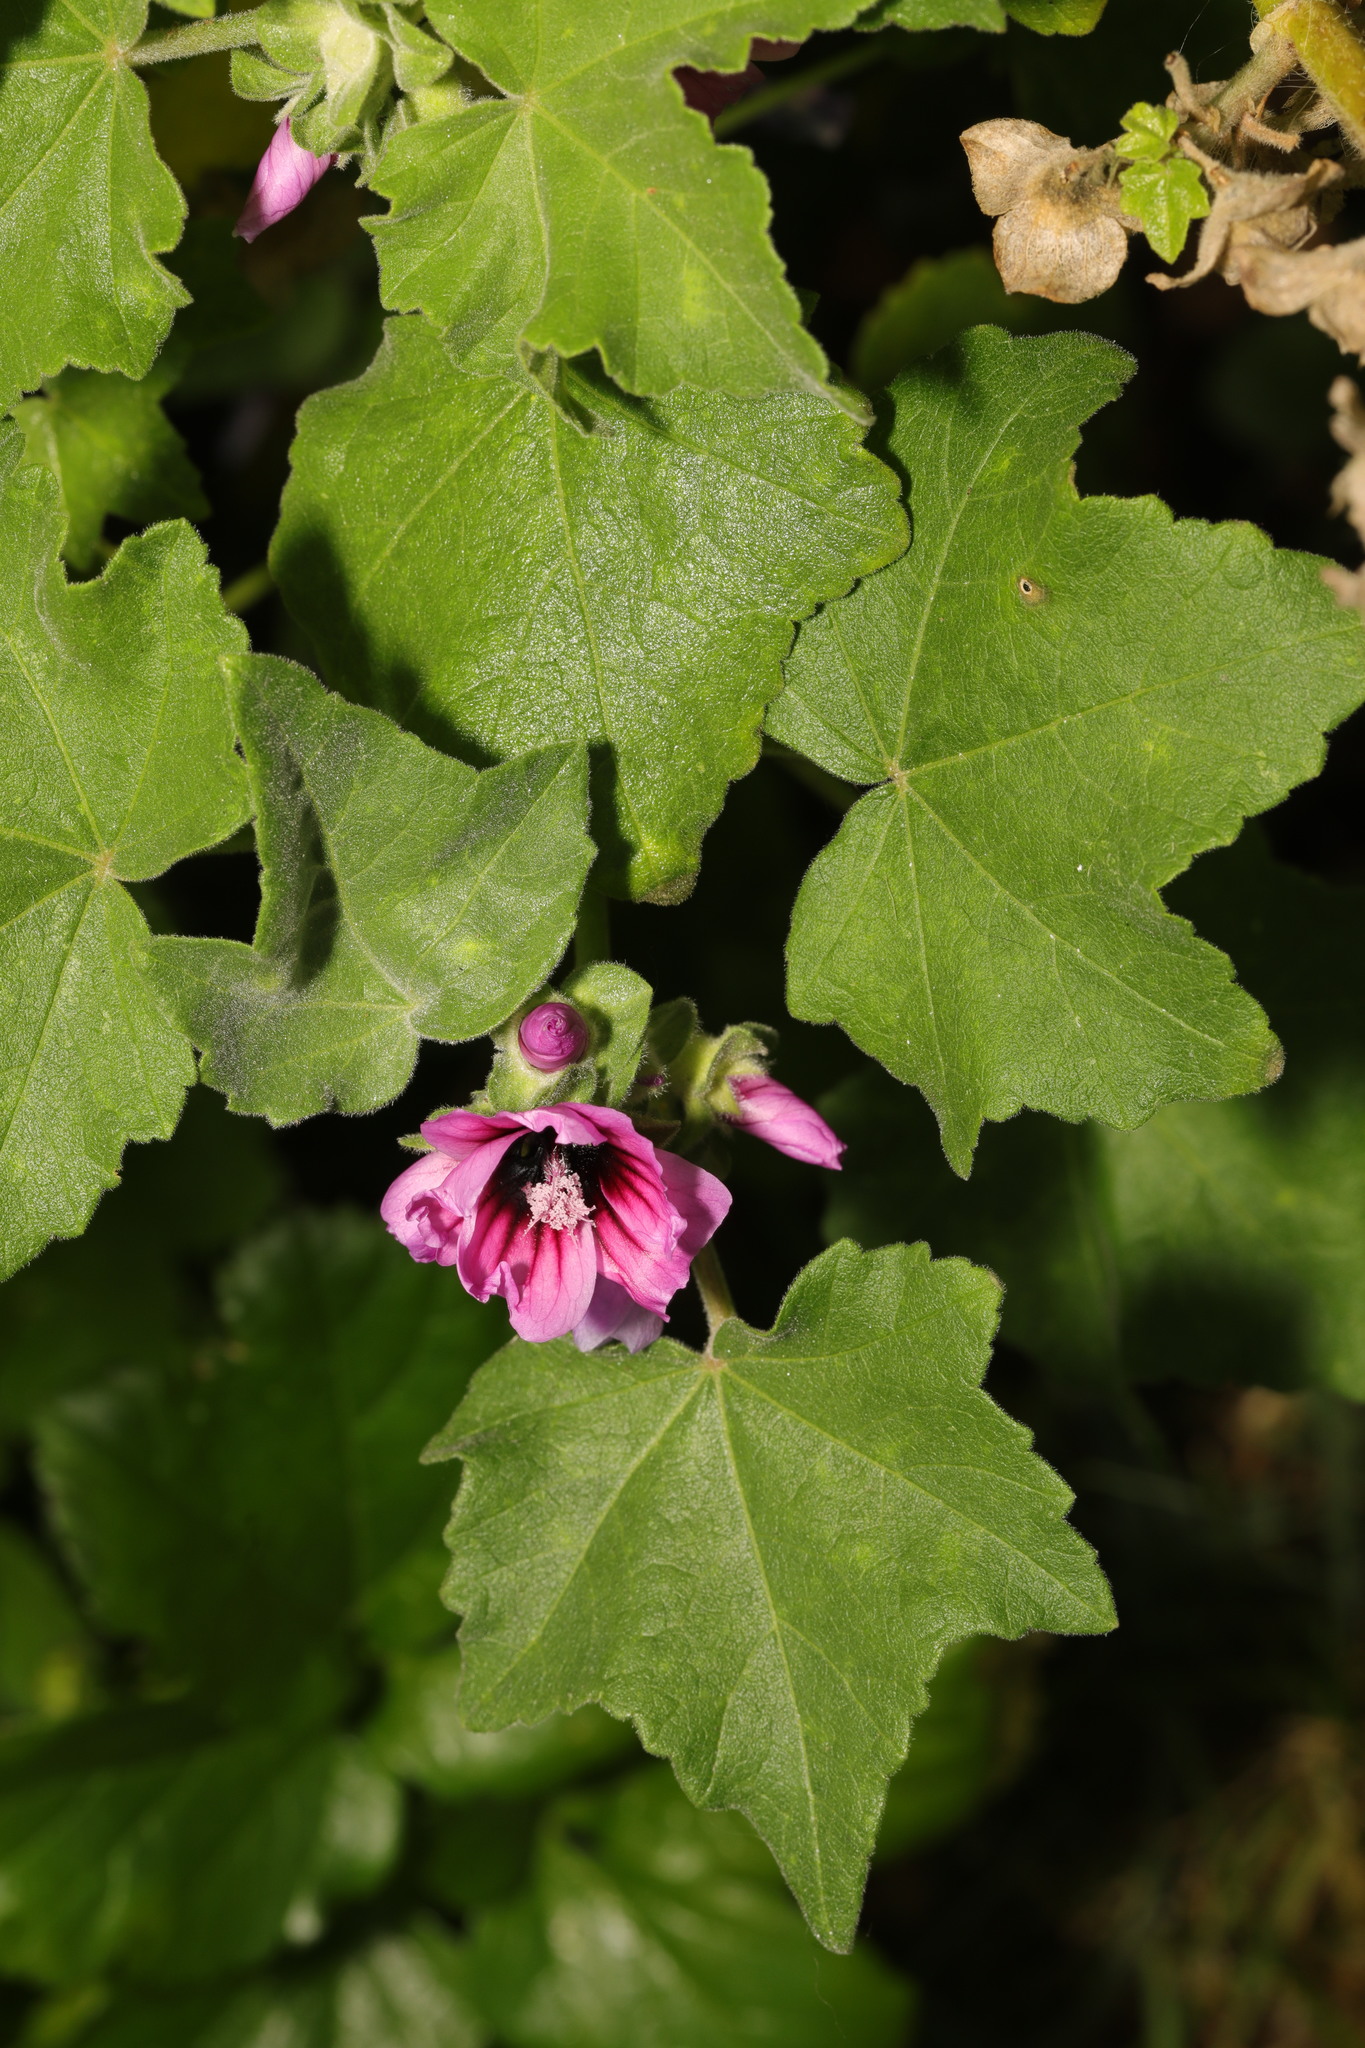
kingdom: Plantae
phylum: Tracheophyta
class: Magnoliopsida
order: Malvales
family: Malvaceae
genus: Malva
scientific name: Malva arborea
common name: Tree mallow
